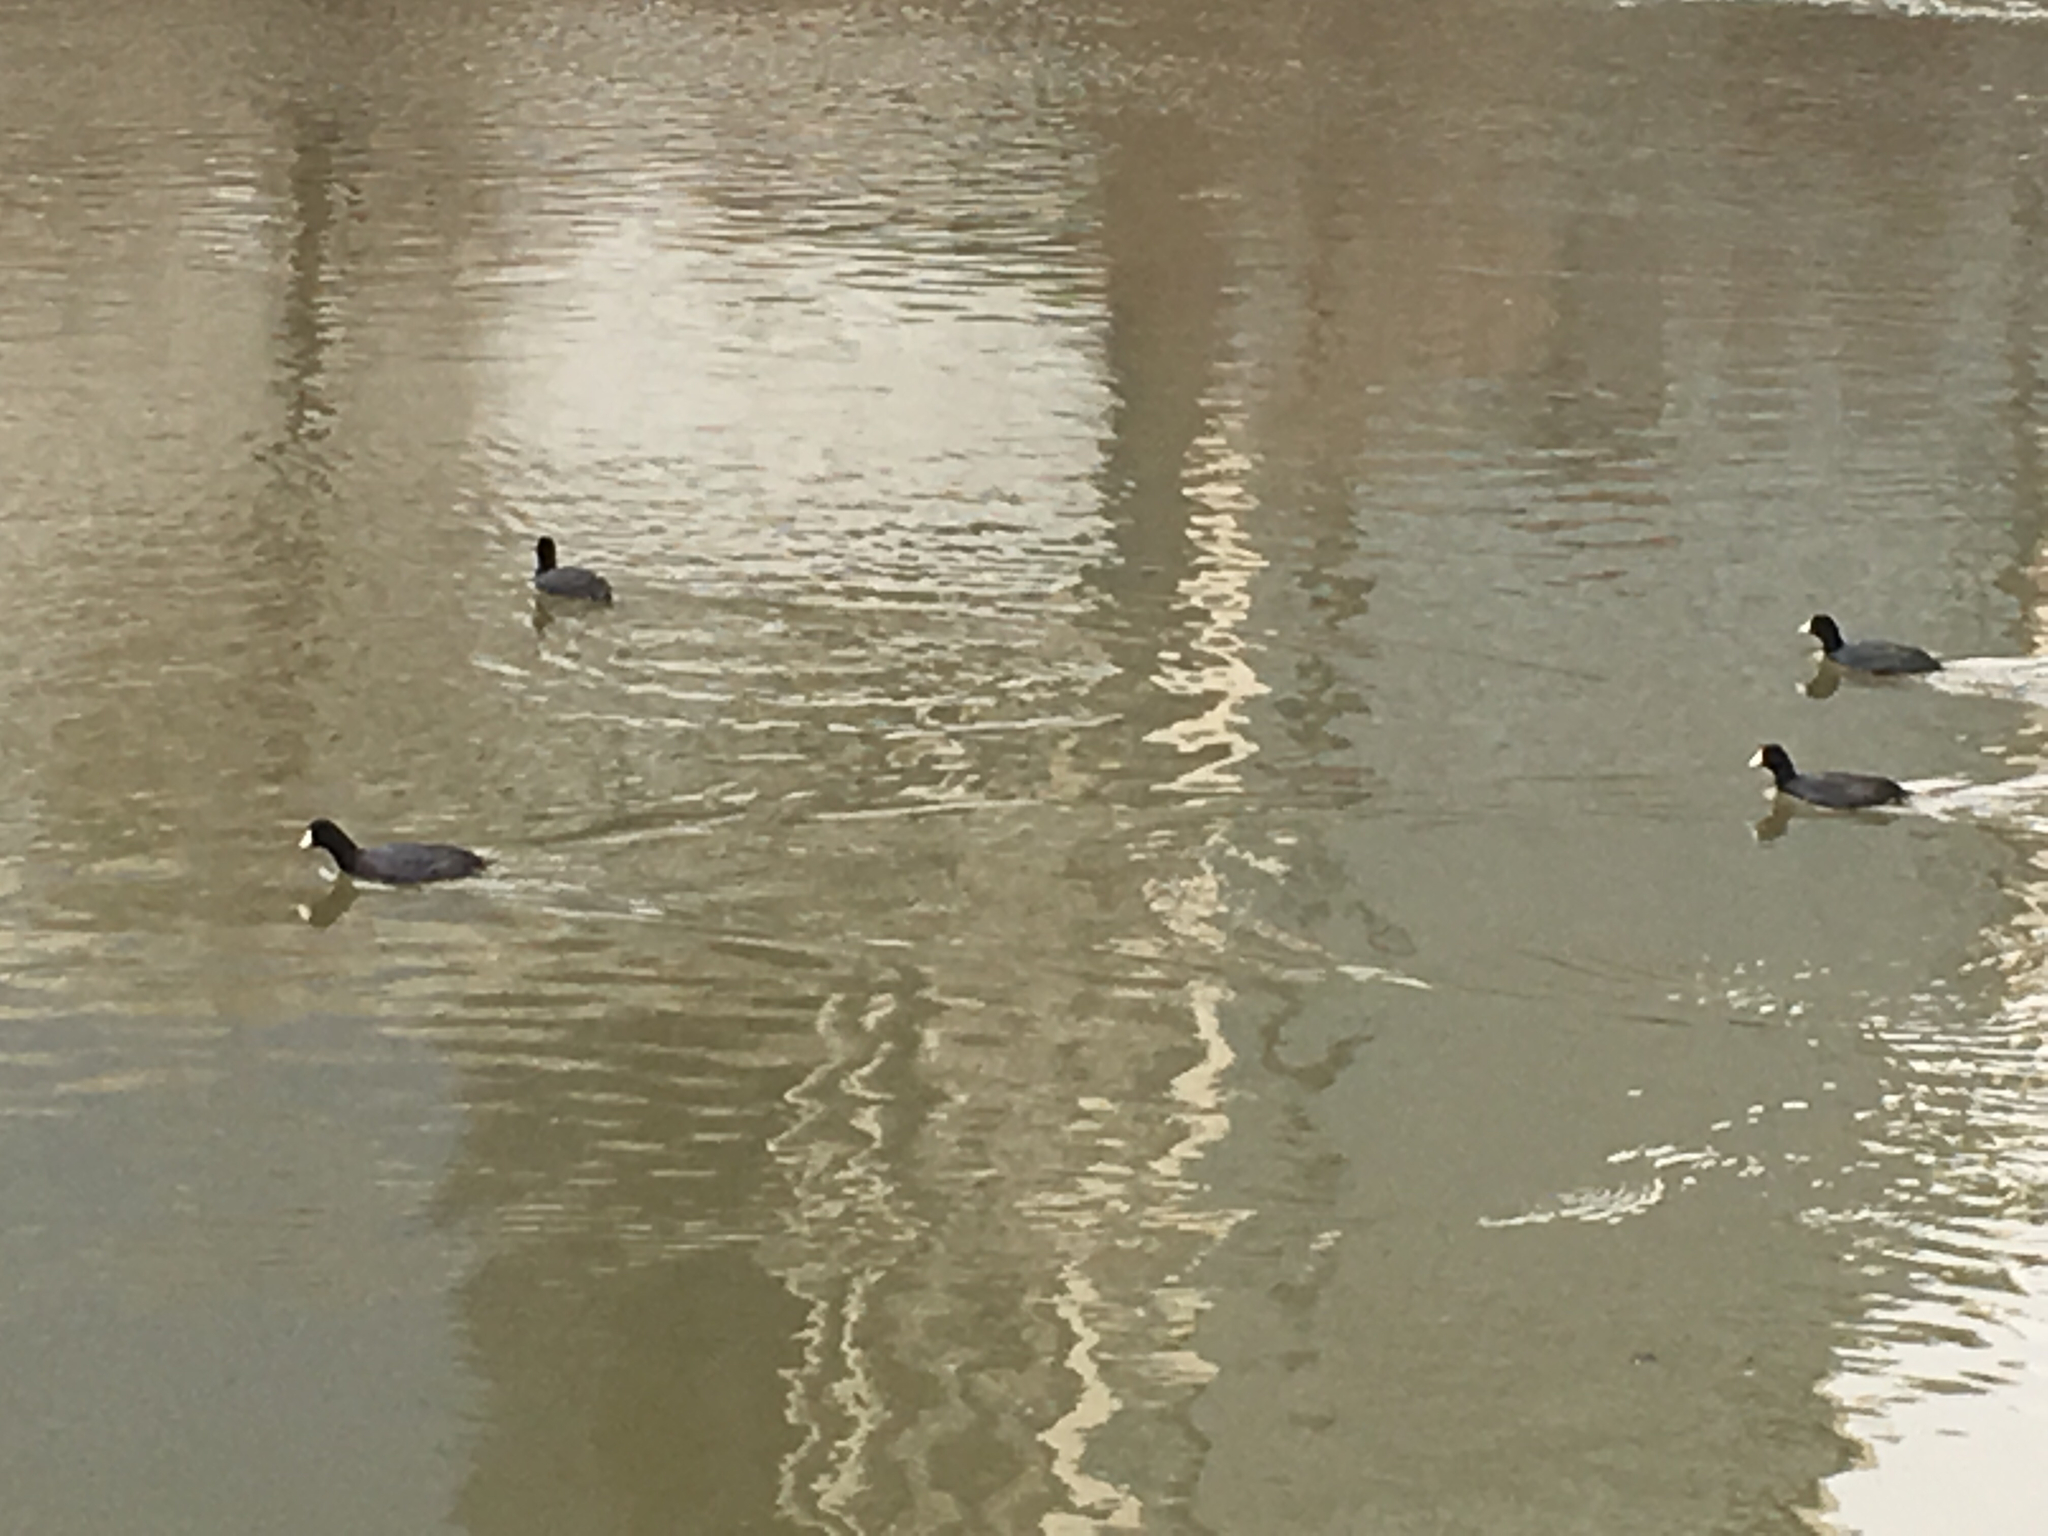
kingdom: Animalia
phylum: Chordata
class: Aves
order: Gruiformes
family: Rallidae
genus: Fulica
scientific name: Fulica americana
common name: American coot
